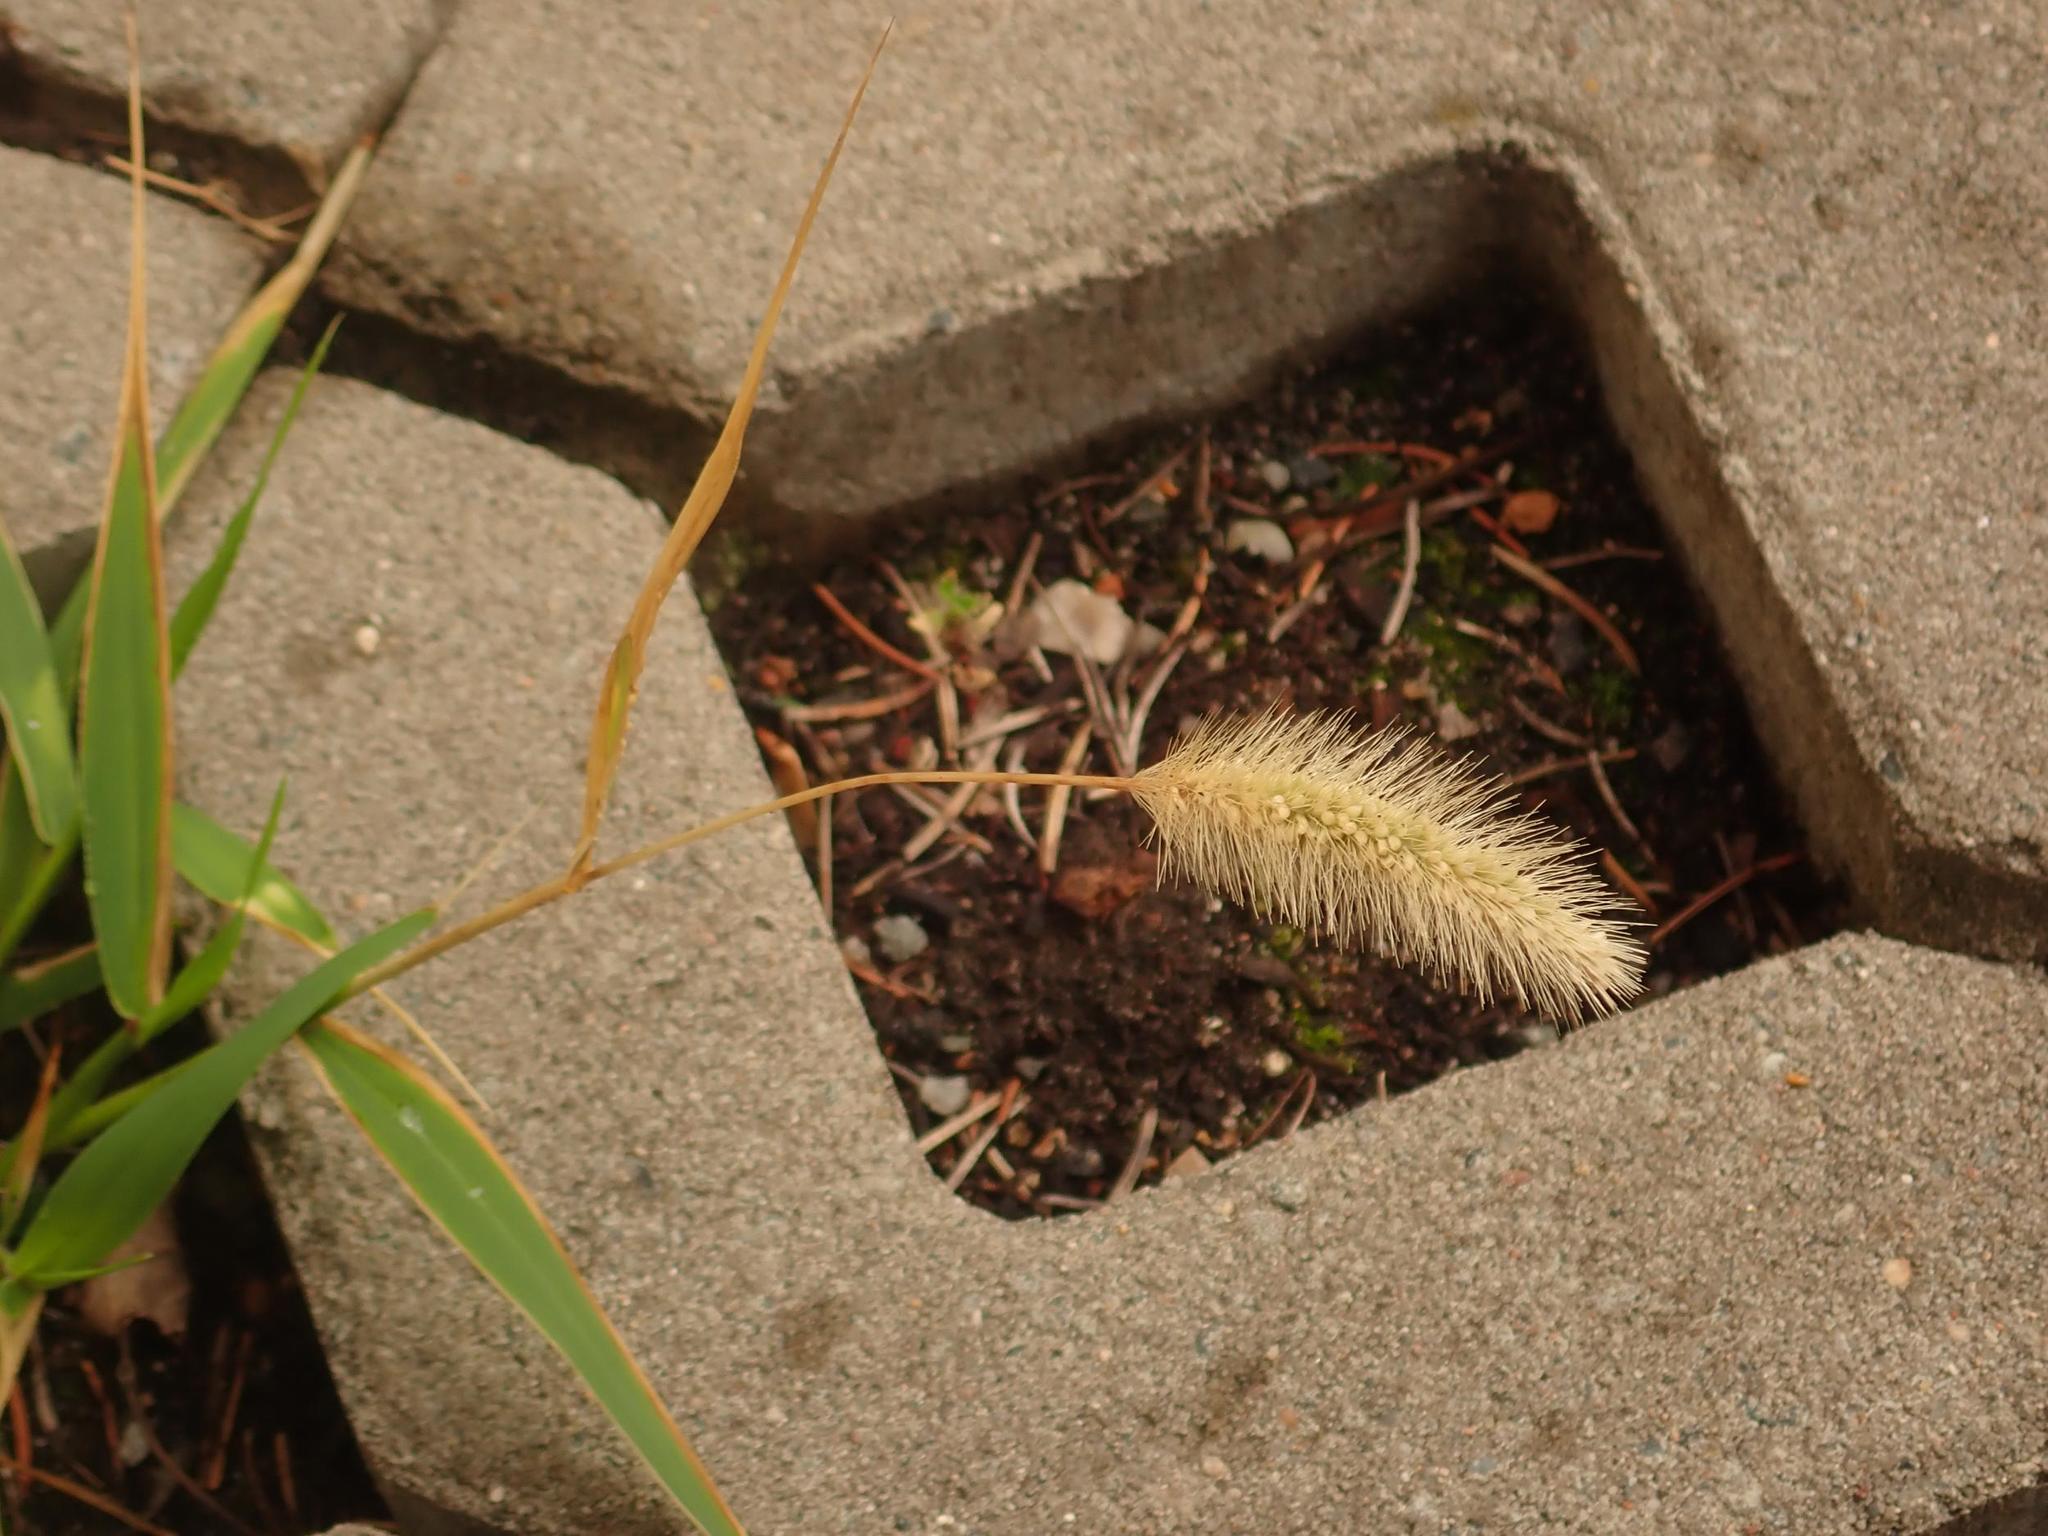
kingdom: Plantae
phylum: Tracheophyta
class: Liliopsida
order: Poales
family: Poaceae
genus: Setaria
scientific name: Setaria viridis
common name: Green bristlegrass
